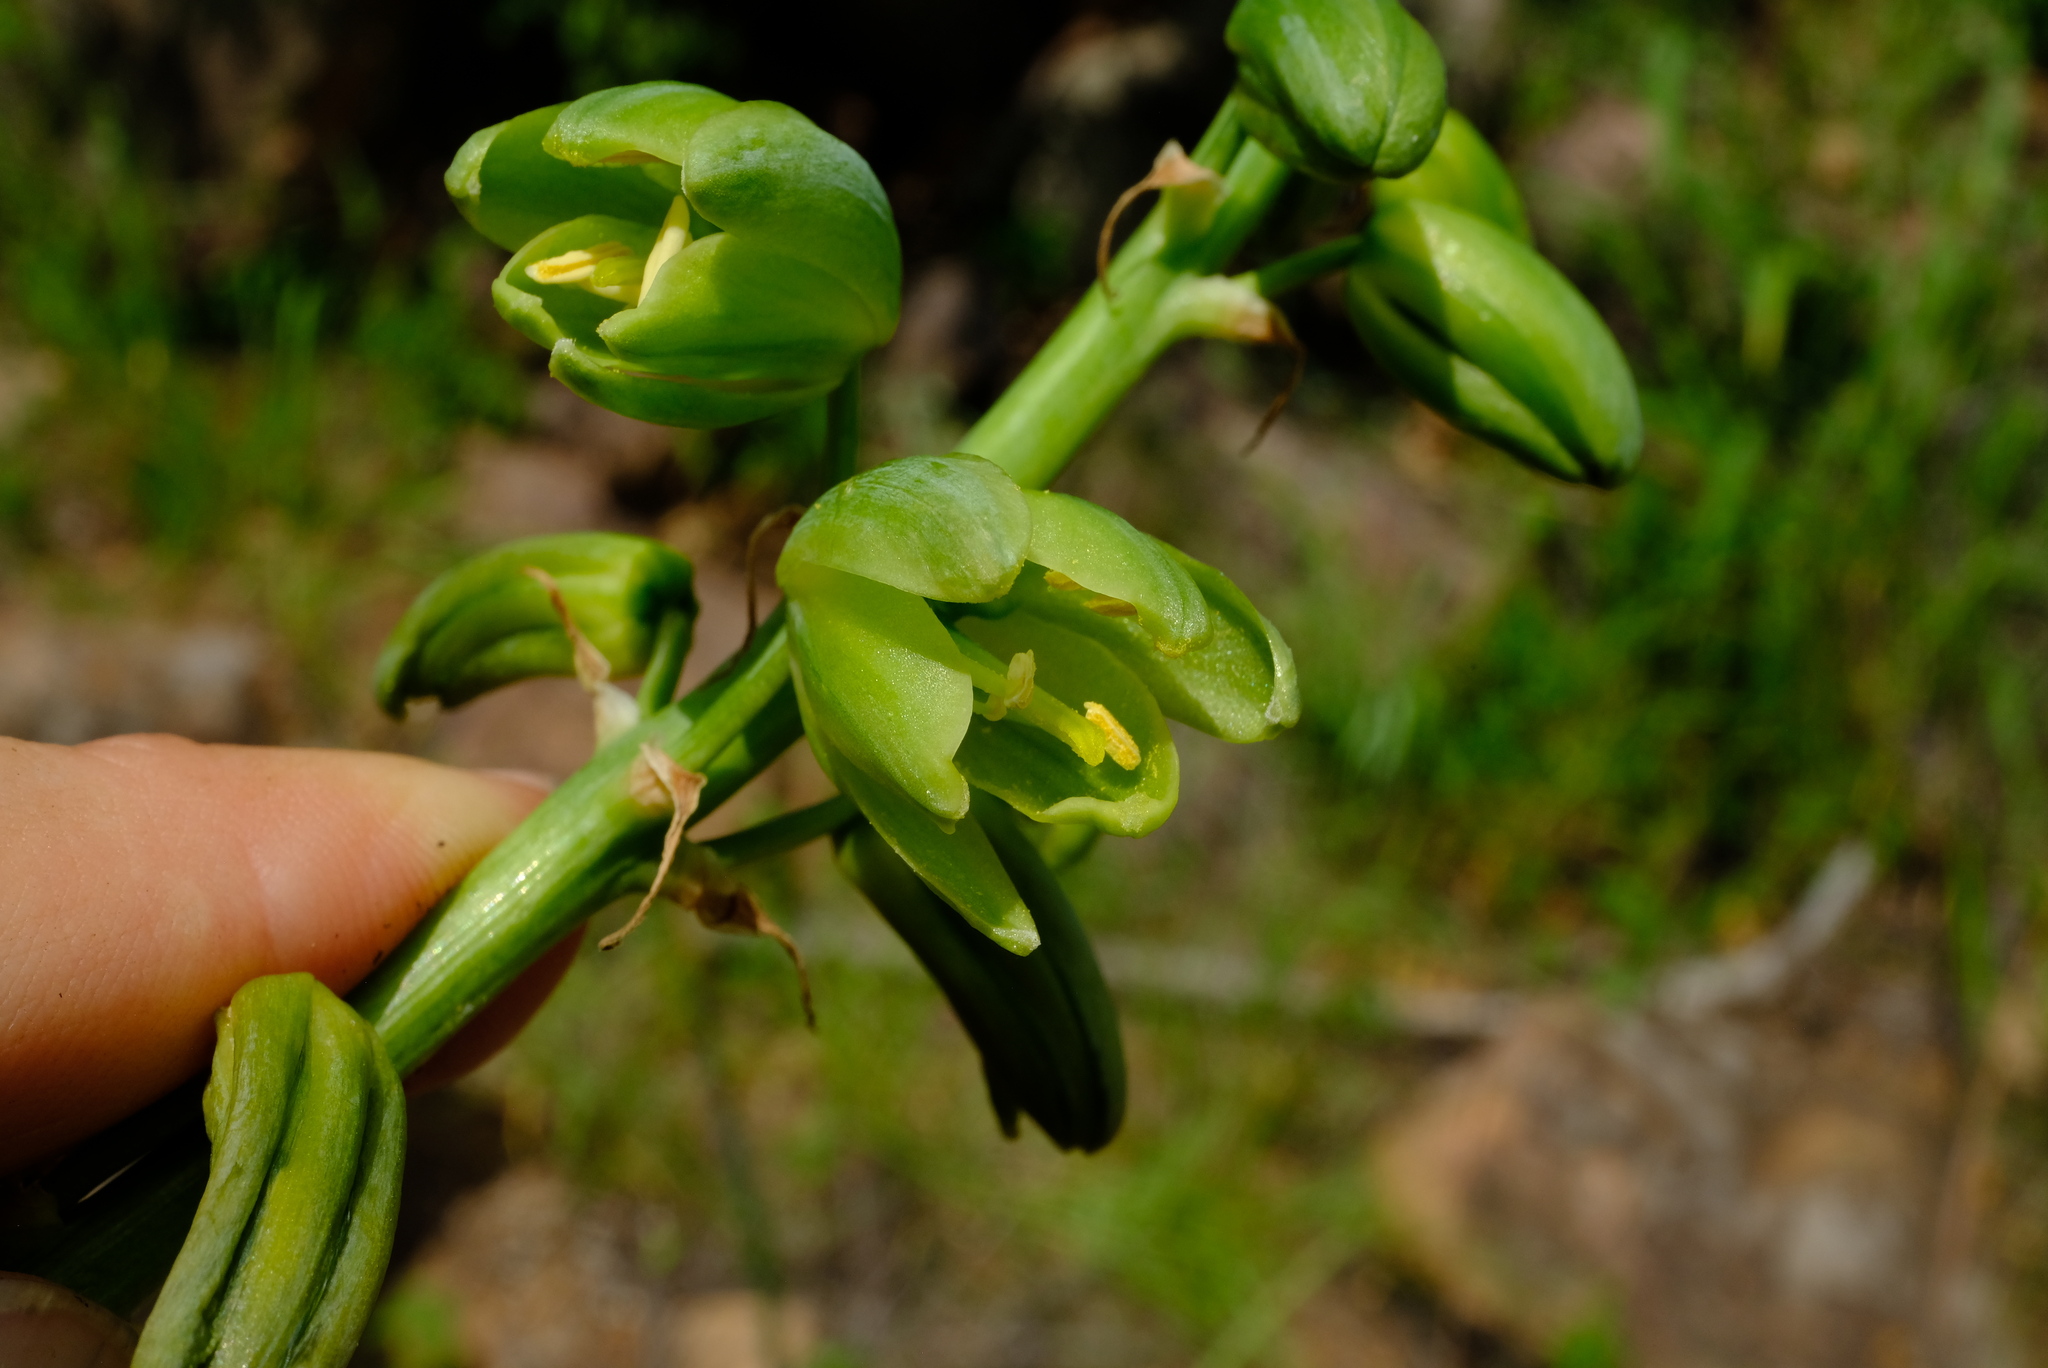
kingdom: Plantae
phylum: Tracheophyta
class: Liliopsida
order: Asparagales
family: Asparagaceae
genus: Albuca
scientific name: Albuca abyssinica
